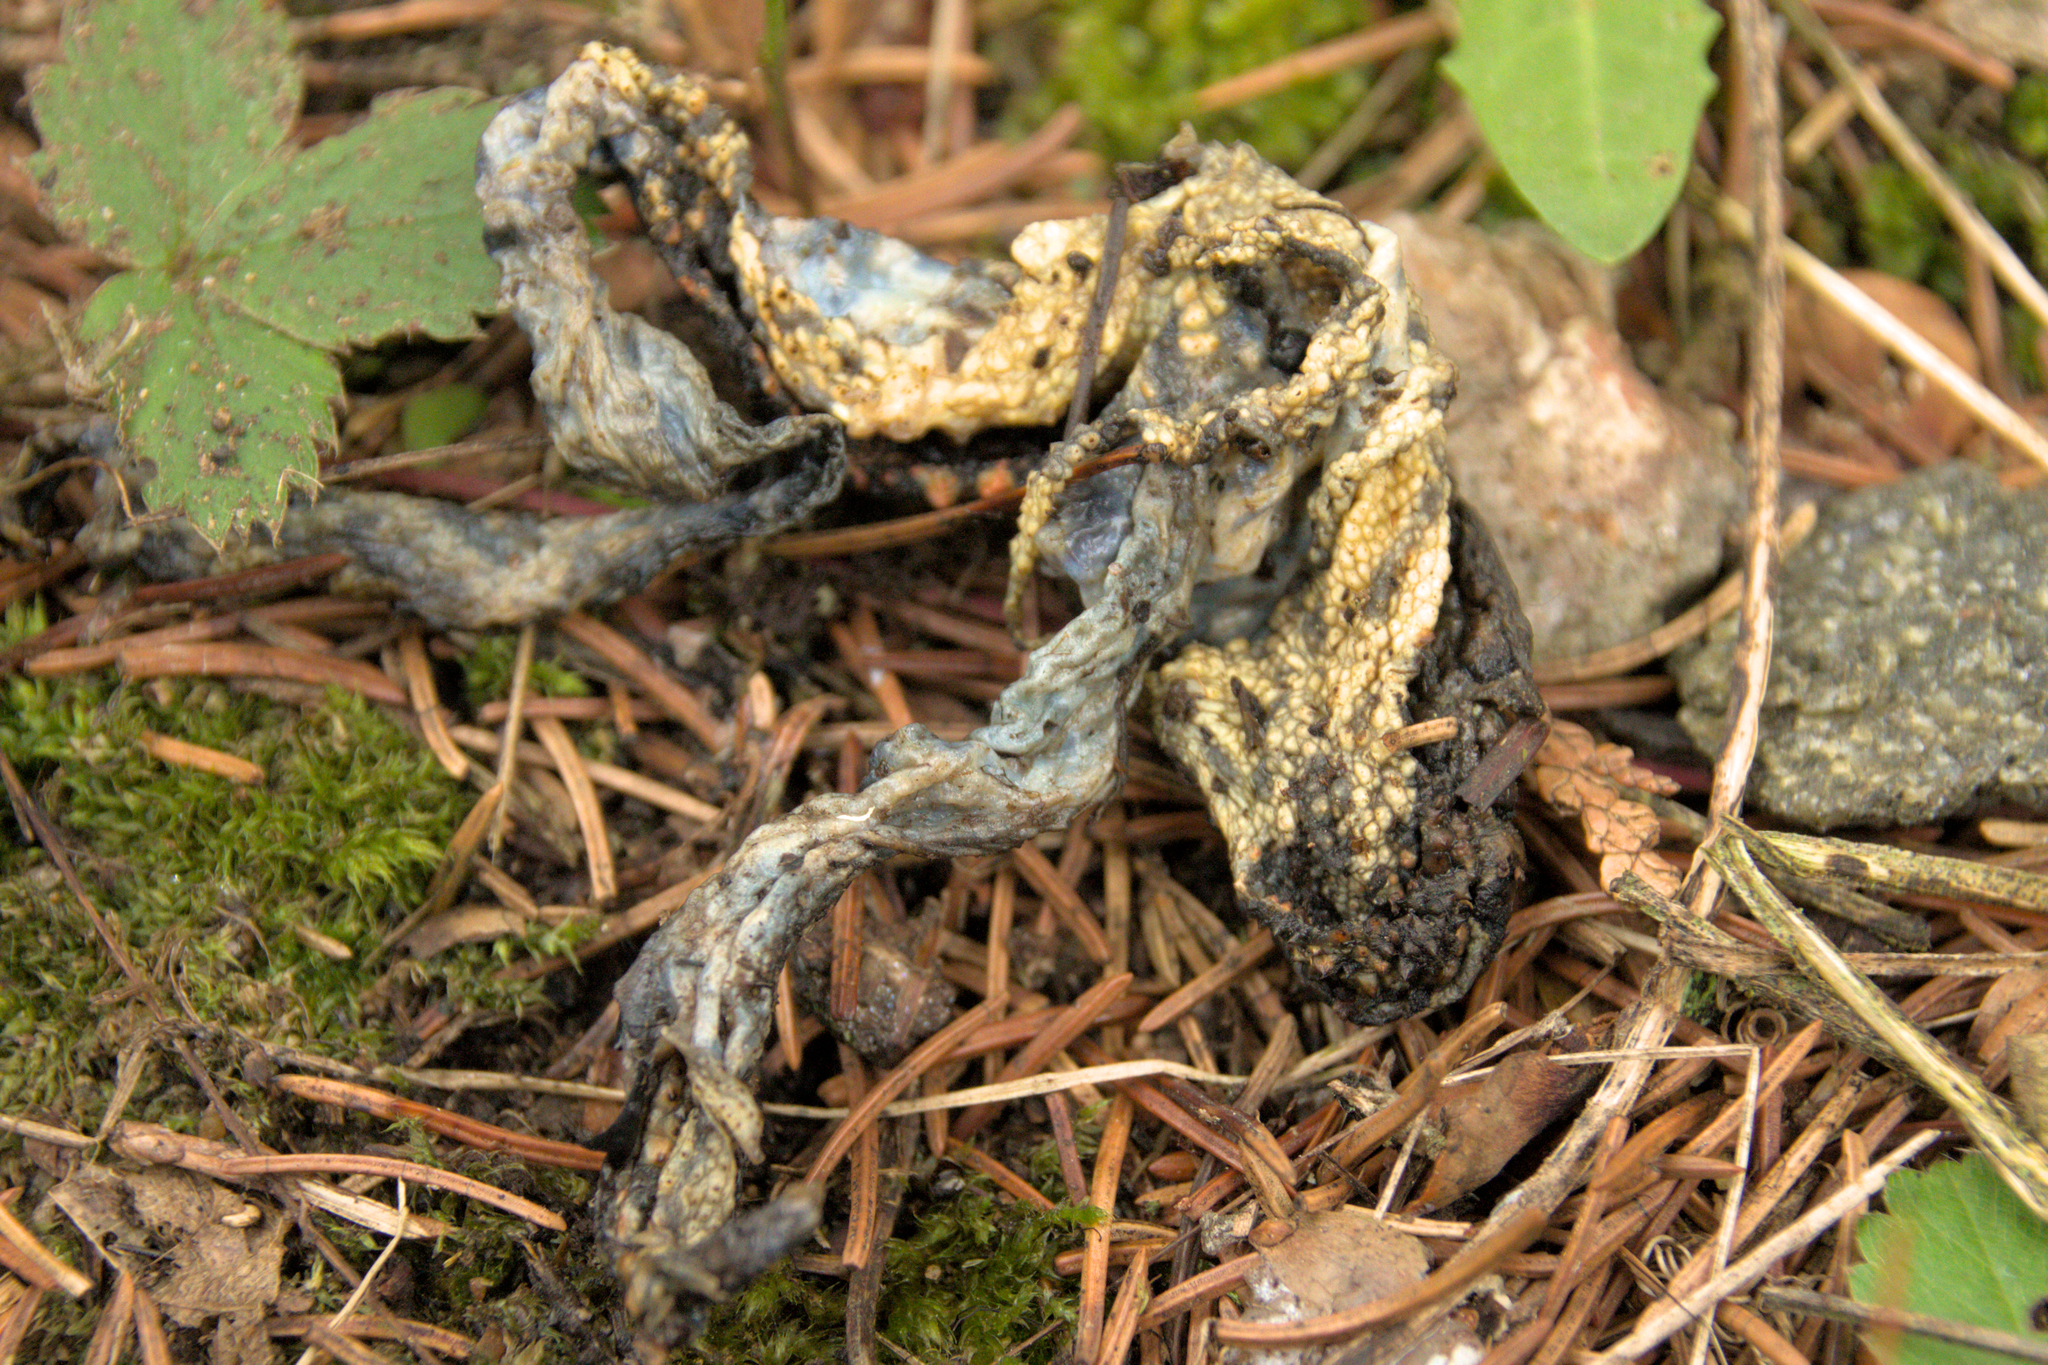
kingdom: Animalia
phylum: Chordata
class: Amphibia
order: Anura
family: Bufonidae
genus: Anaxyrus
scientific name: Anaxyrus americanus
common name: American toad
